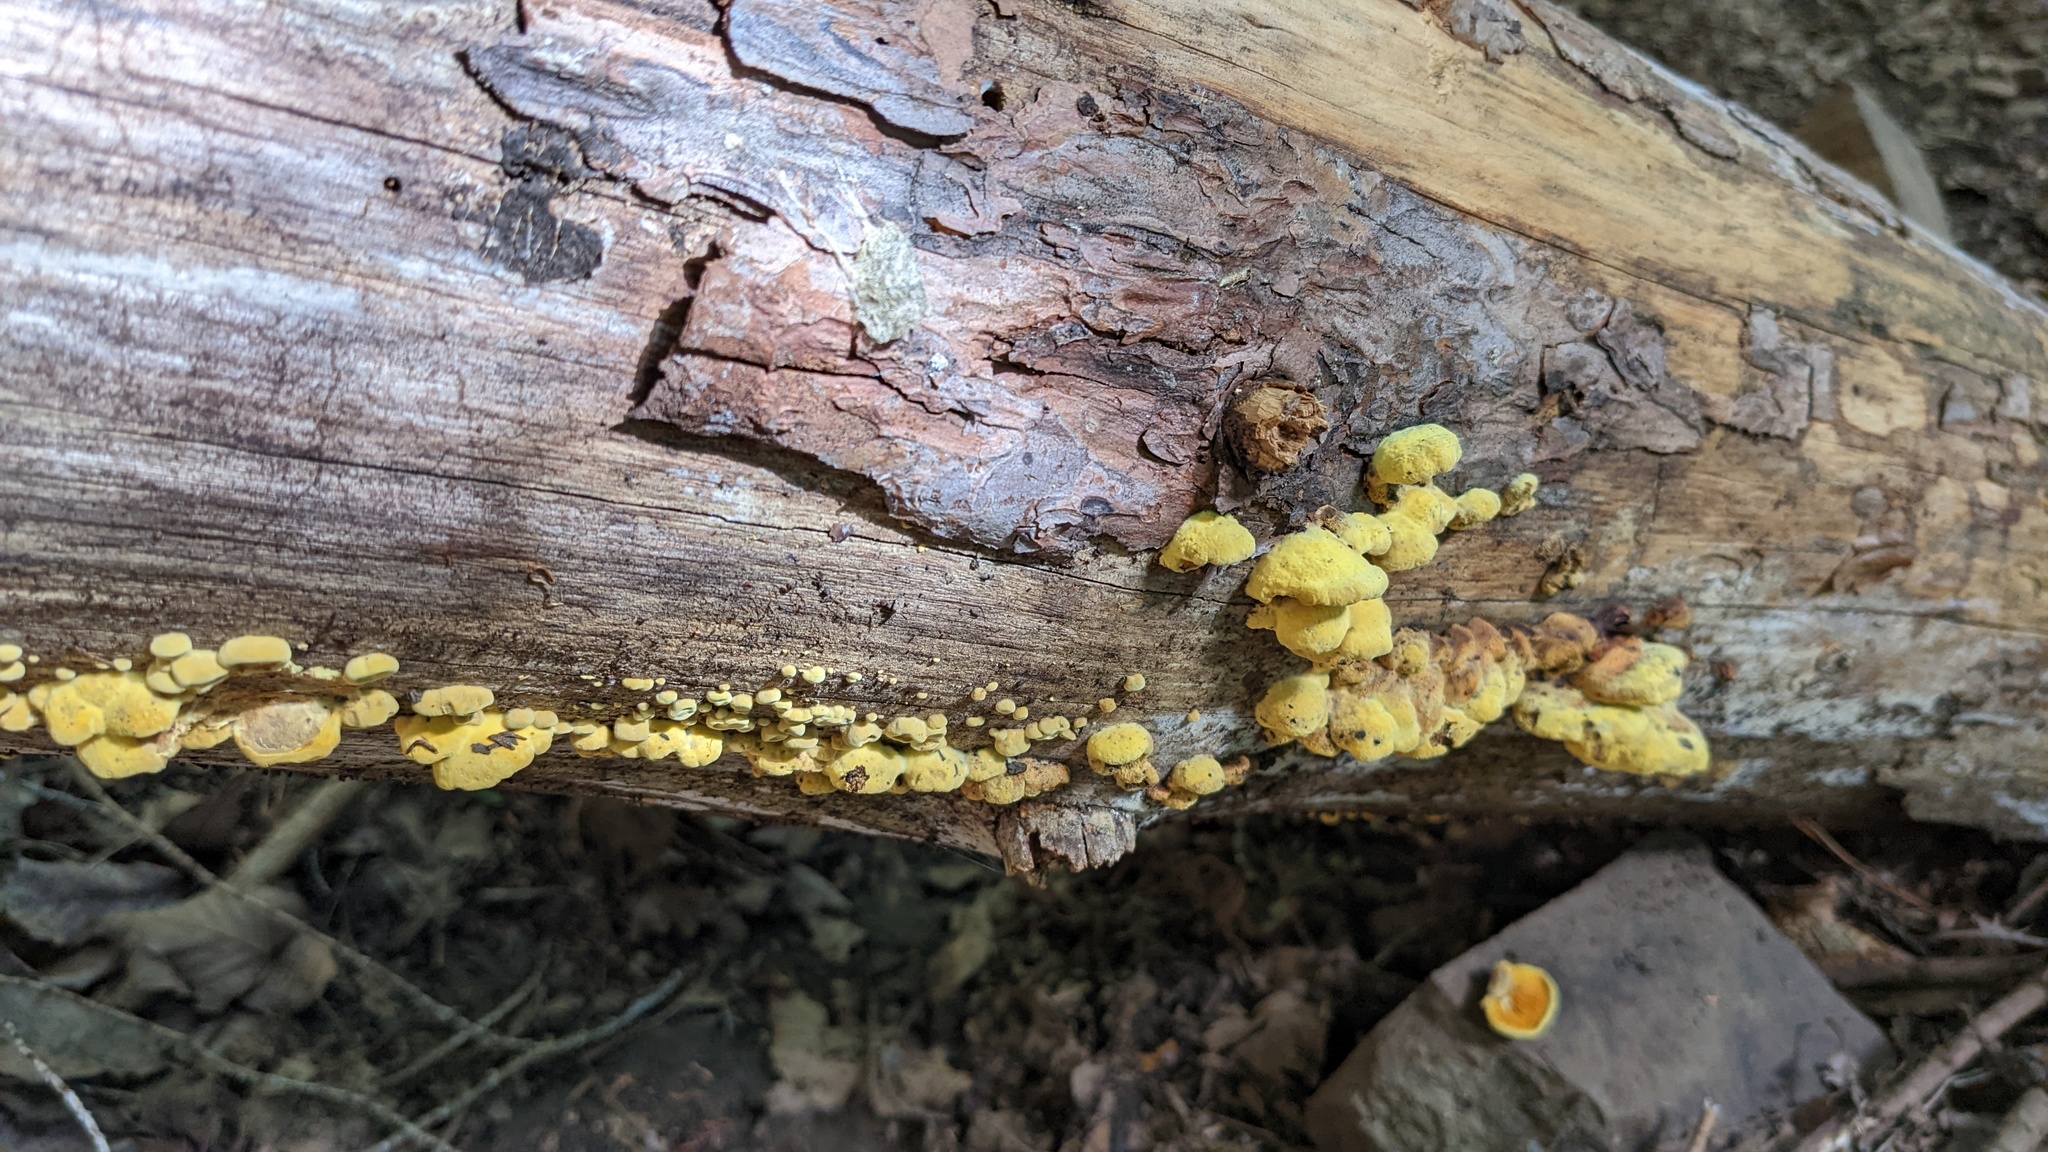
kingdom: Fungi
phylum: Basidiomycota
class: Agaricomycetes
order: Boletales
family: Paxillaceae
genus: Meiorganum
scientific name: Meiorganum curtisii
